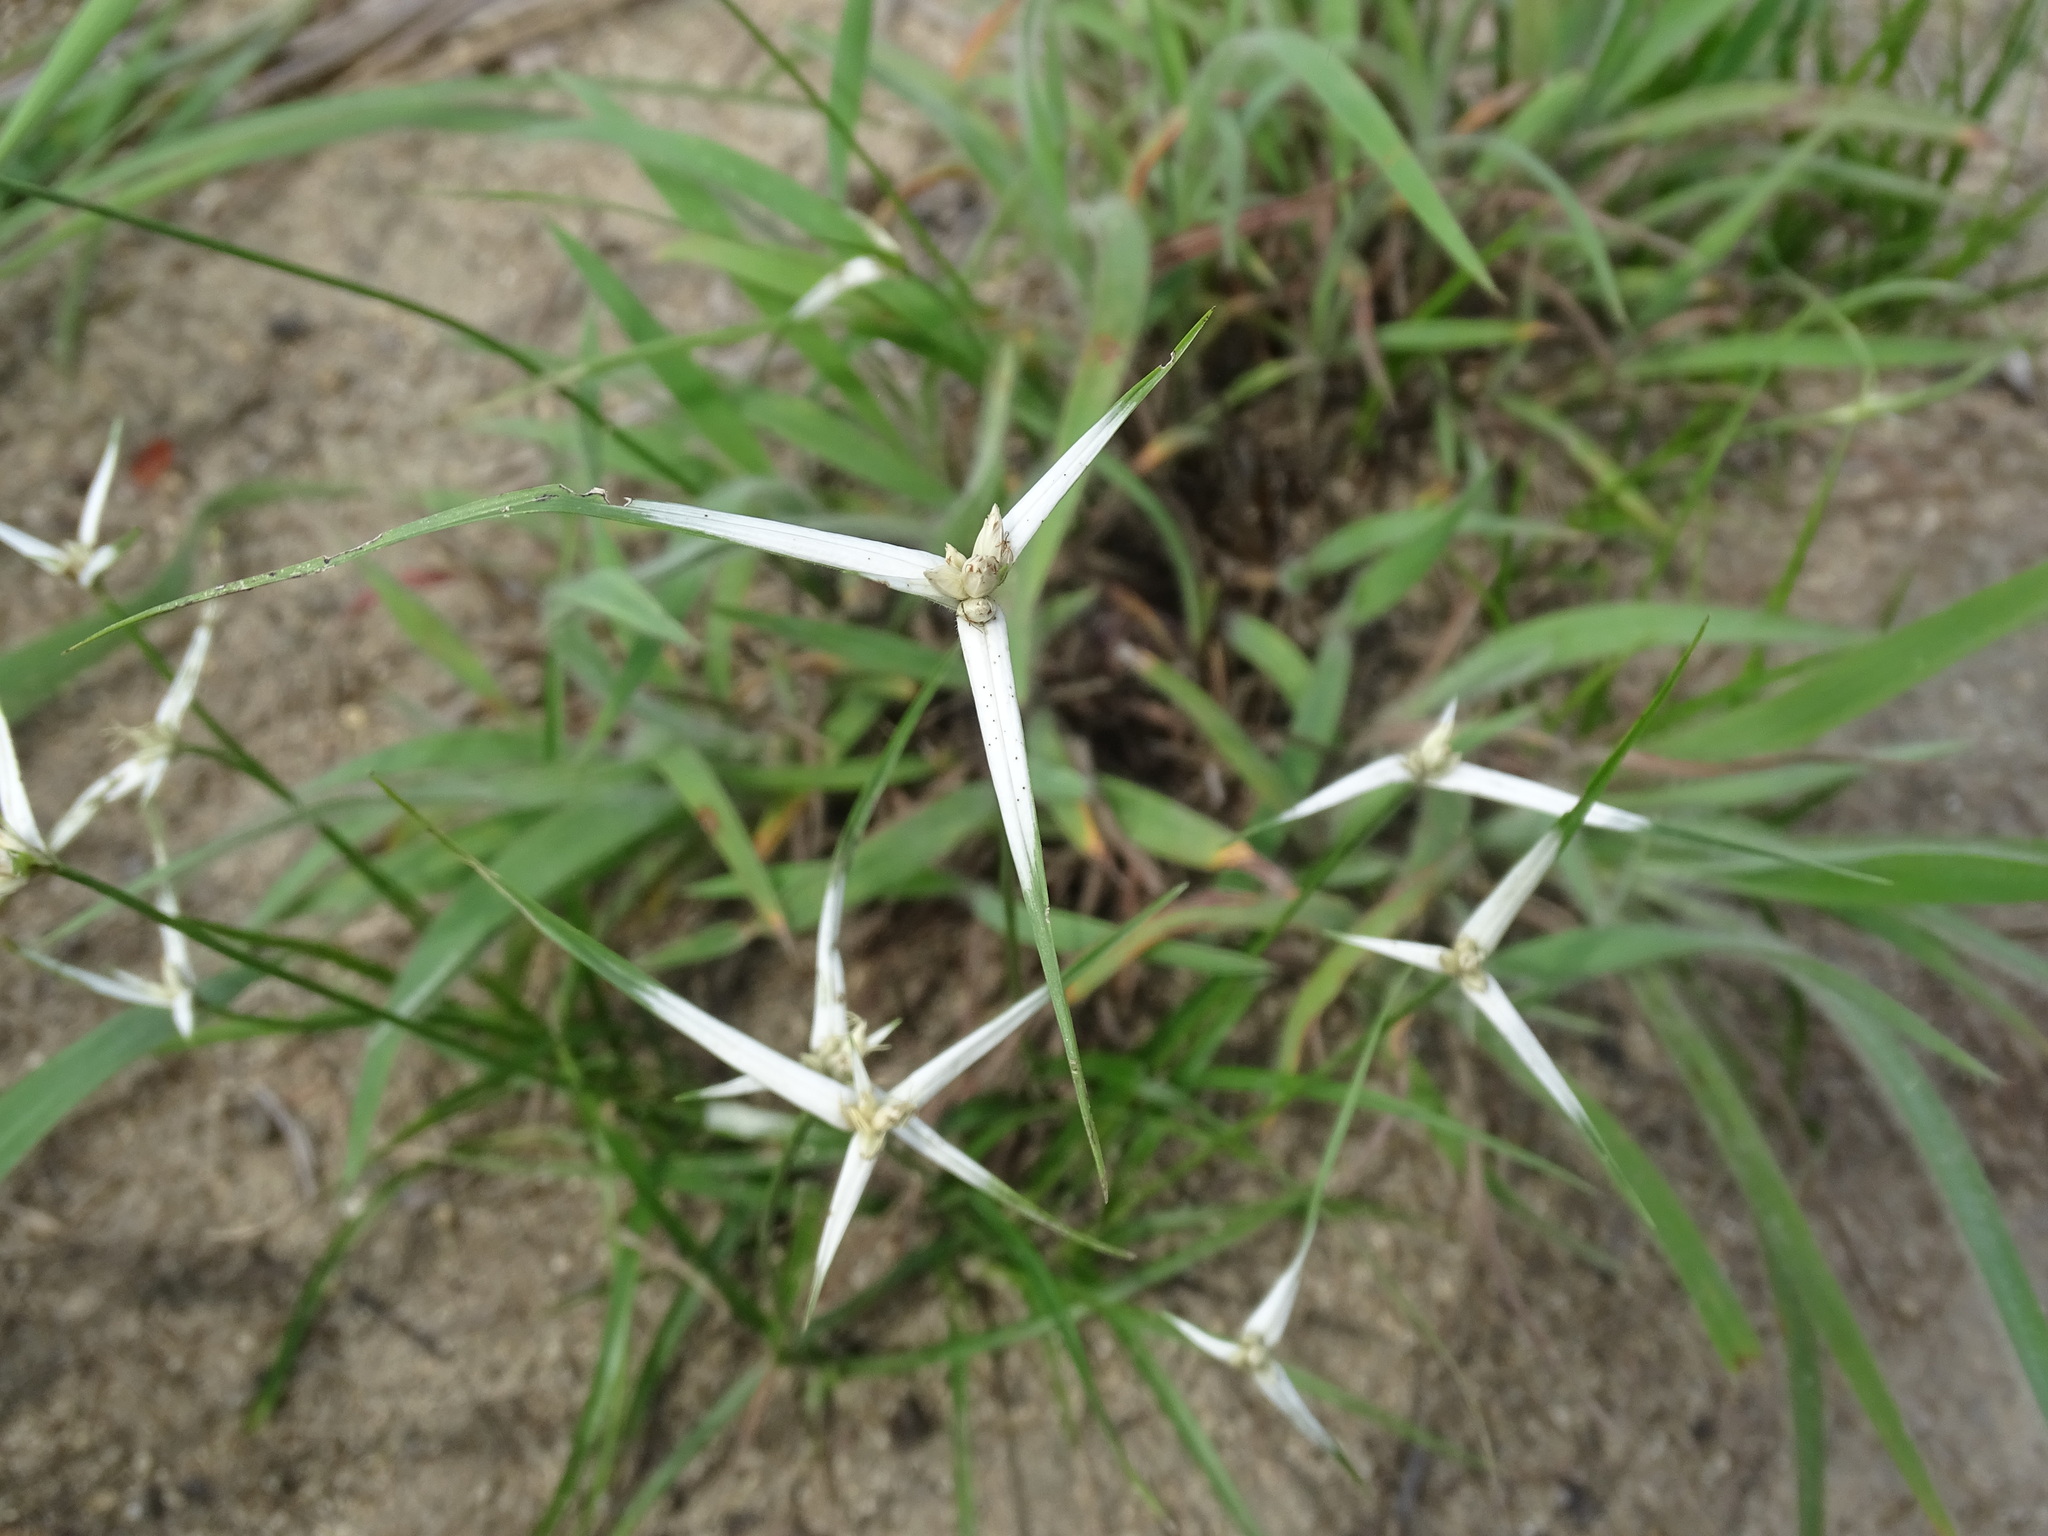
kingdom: Plantae
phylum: Tracheophyta
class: Liliopsida
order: Poales
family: Cyperaceae
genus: Rhynchospora
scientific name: Rhynchospora nervosa
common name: Star sedge
